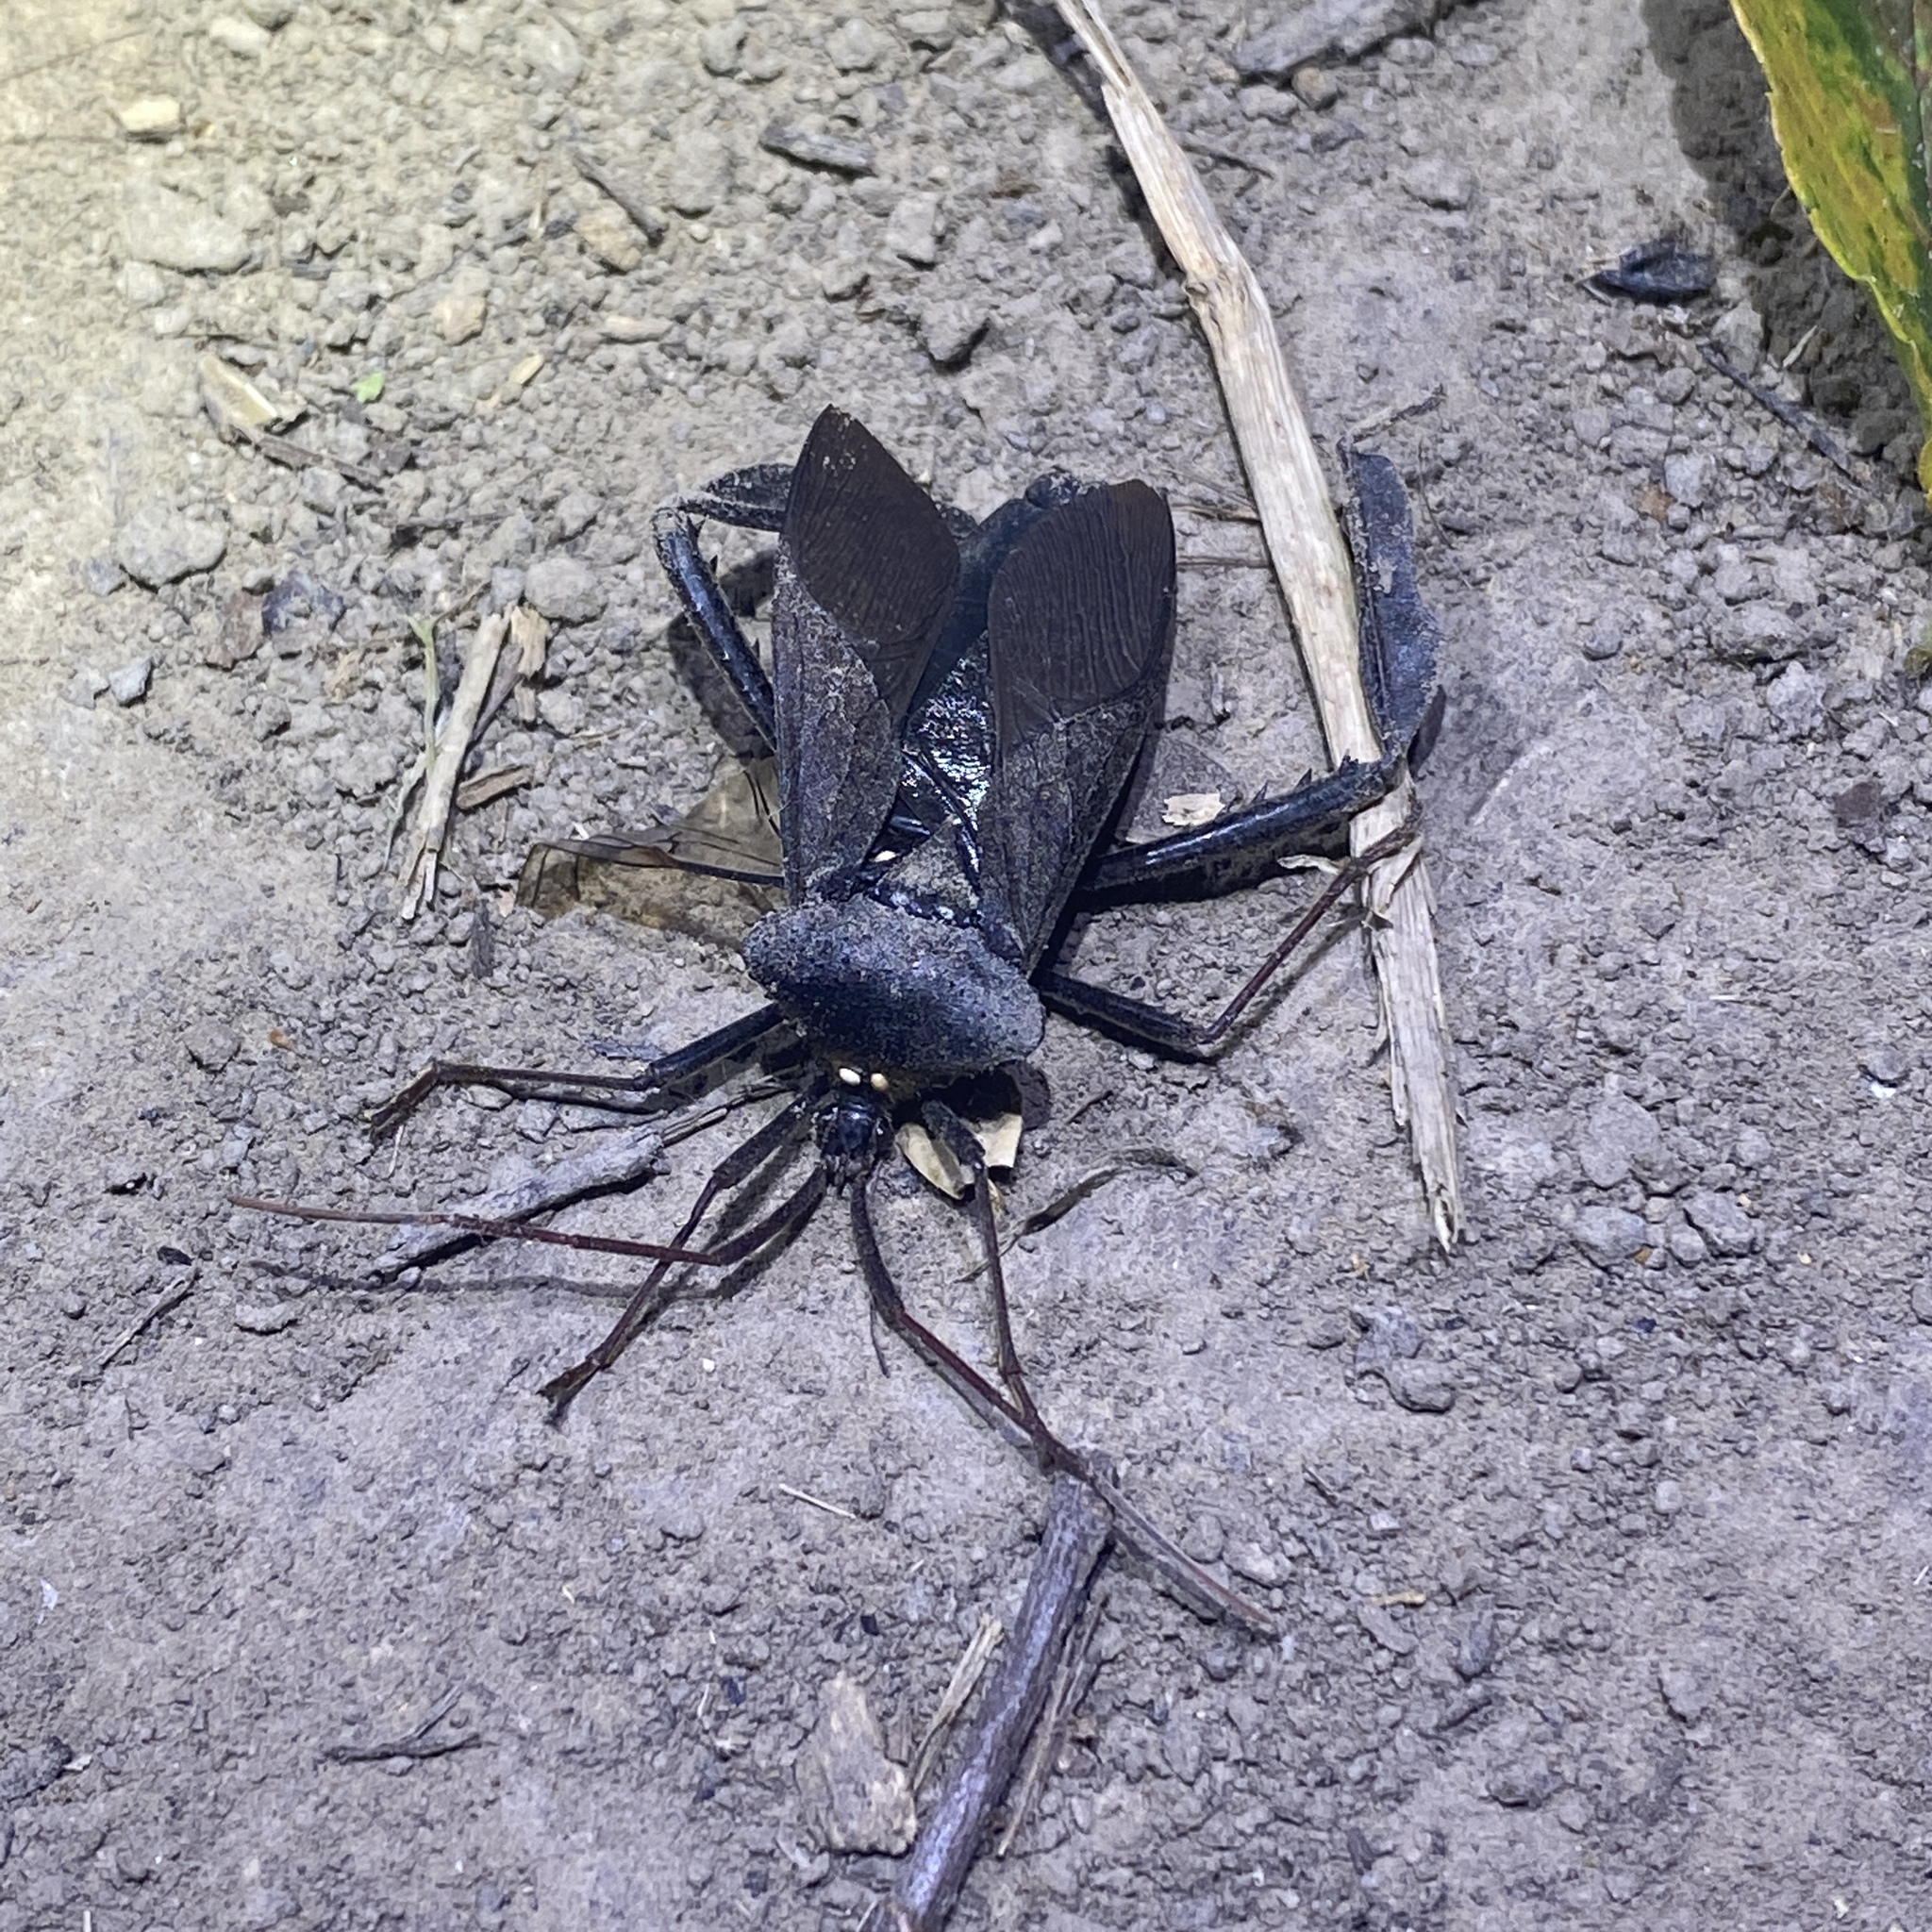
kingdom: Animalia
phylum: Arthropoda
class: Insecta
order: Hemiptera
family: Coreidae
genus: Acanthocephala
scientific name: Acanthocephala declivis
